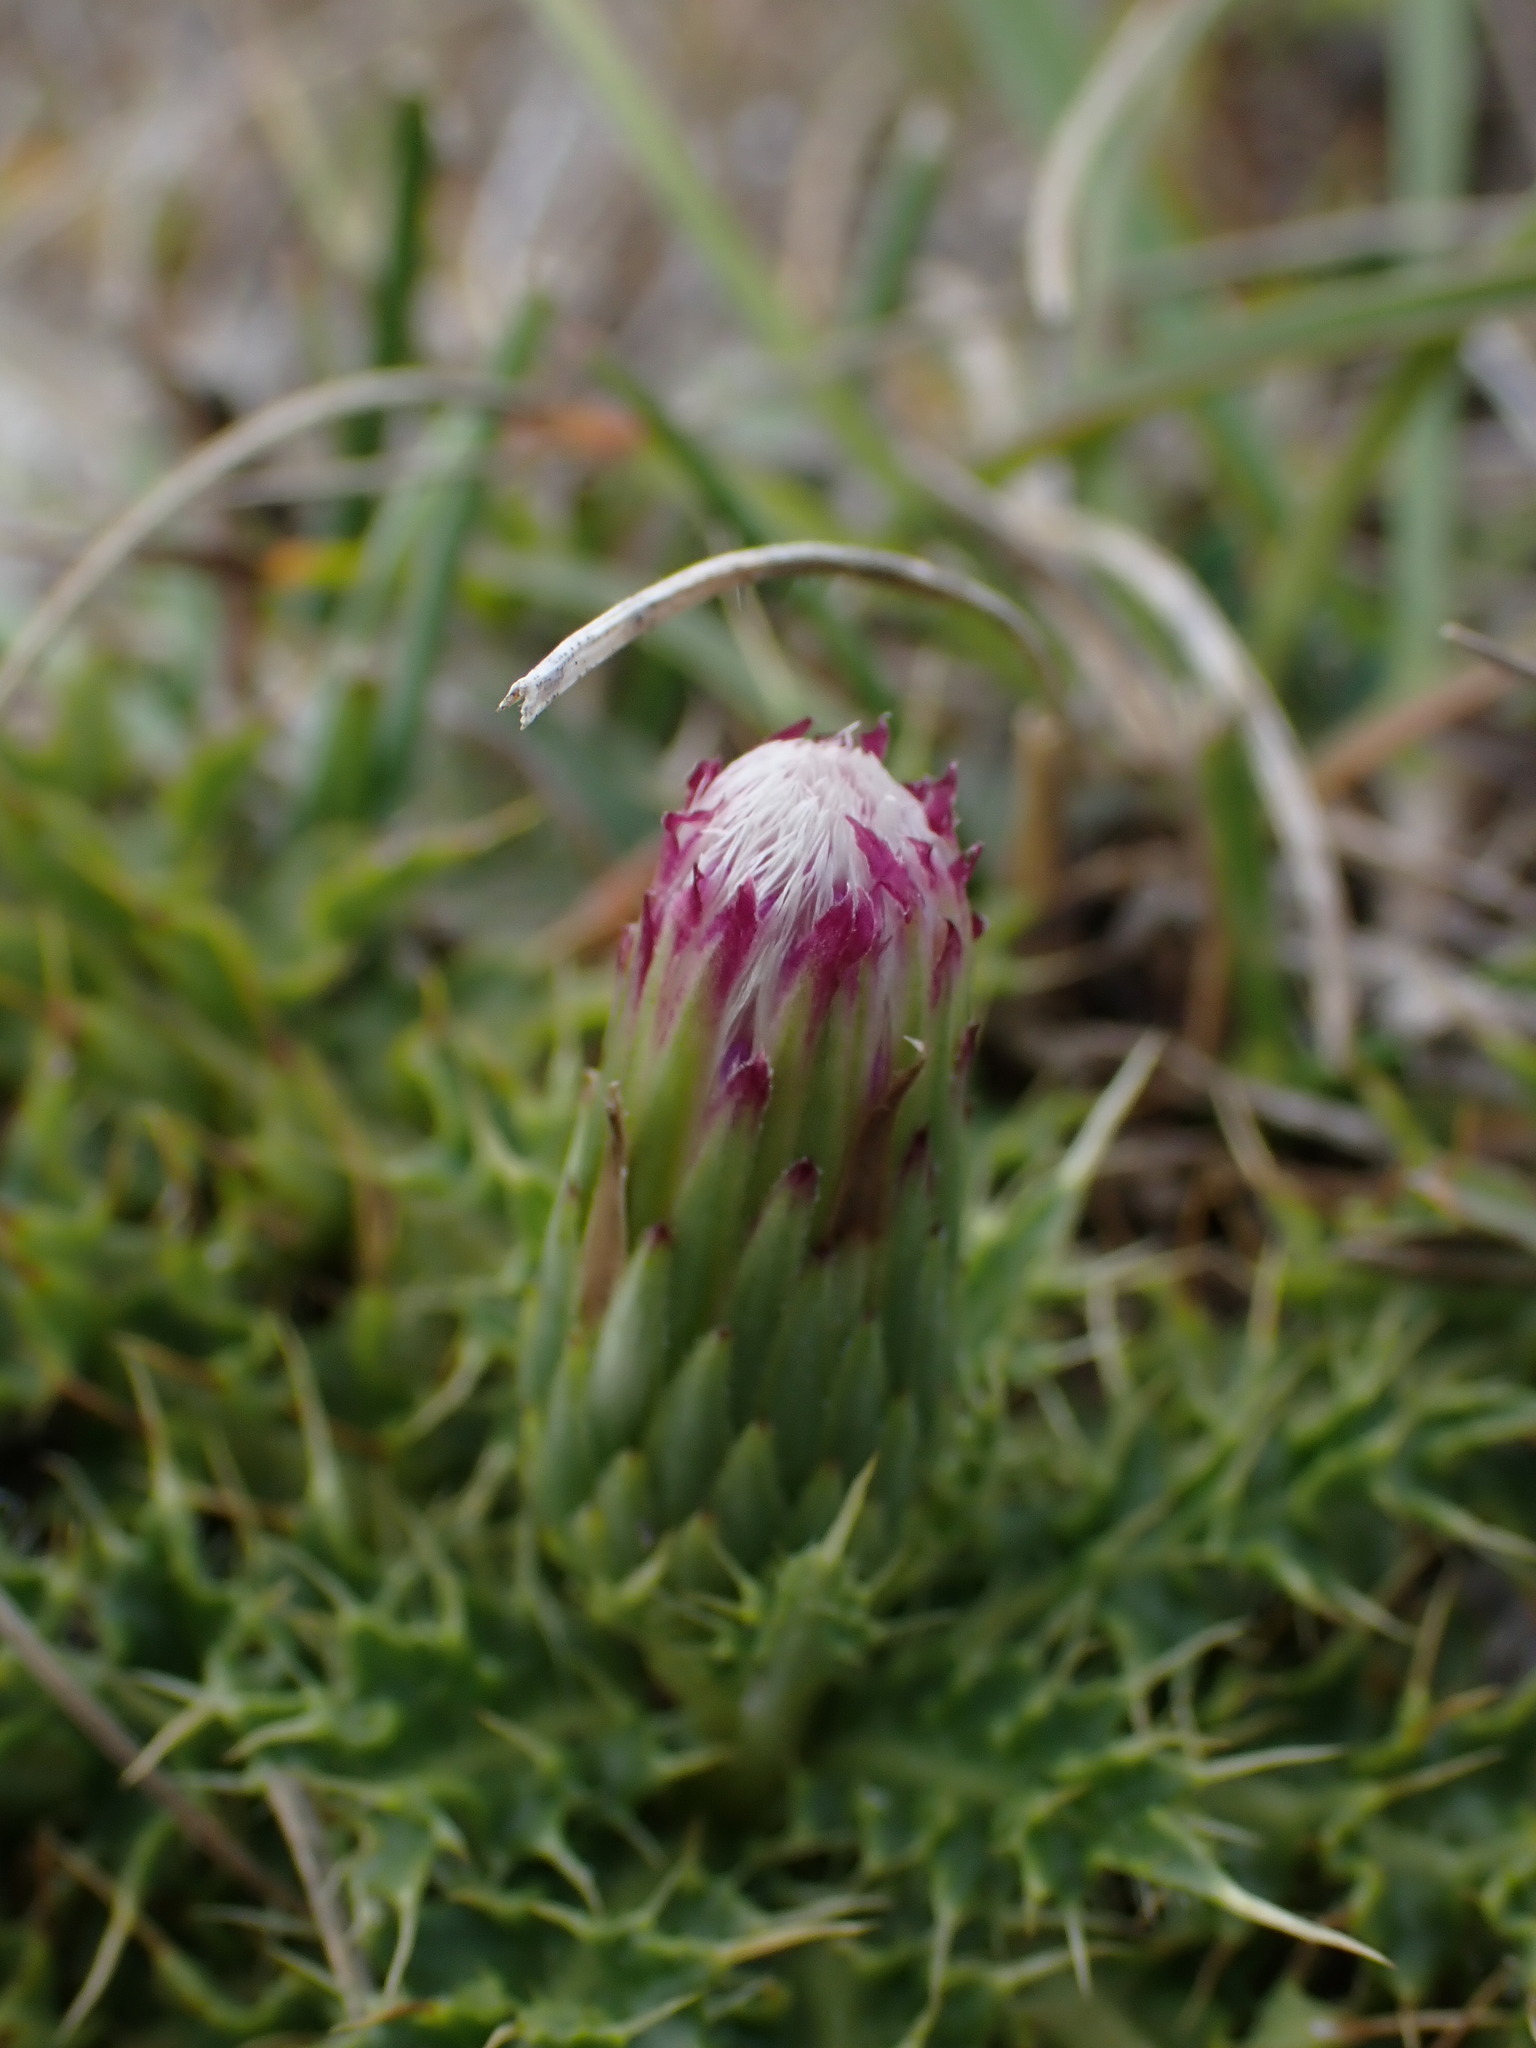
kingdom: Plantae
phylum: Tracheophyta
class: Magnoliopsida
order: Asterales
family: Asteraceae
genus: Cirsium
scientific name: Cirsium acaulon
